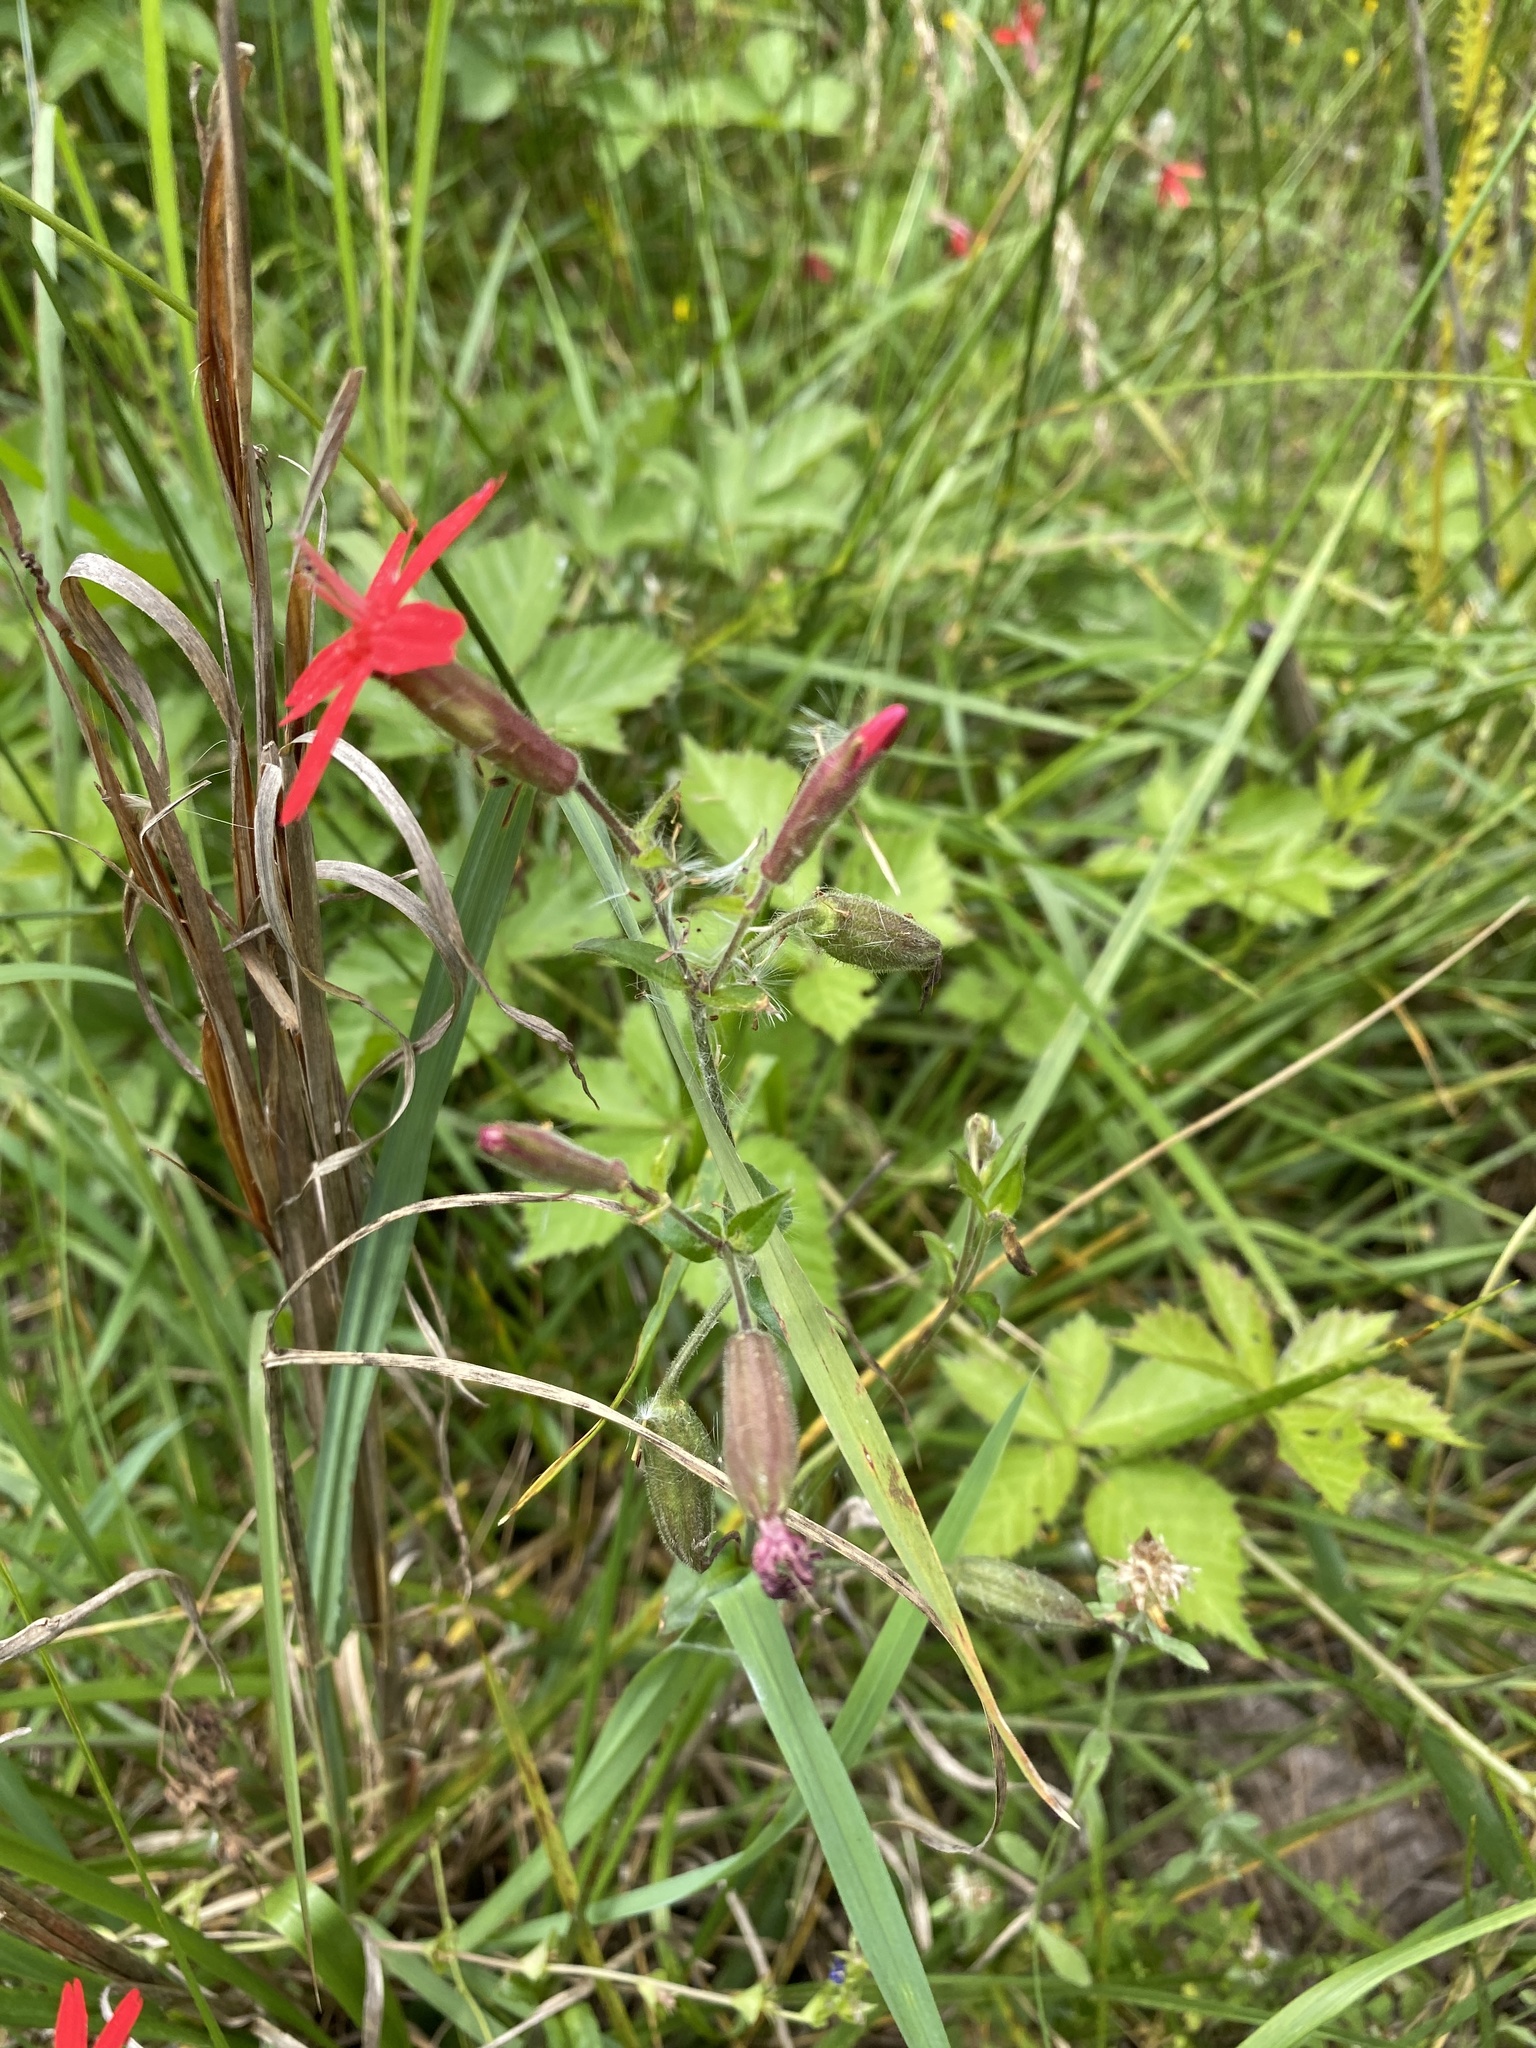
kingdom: Plantae
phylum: Tracheophyta
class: Magnoliopsida
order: Caryophyllales
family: Caryophyllaceae
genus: Silene
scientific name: Silene virginica
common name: Fire-pink
